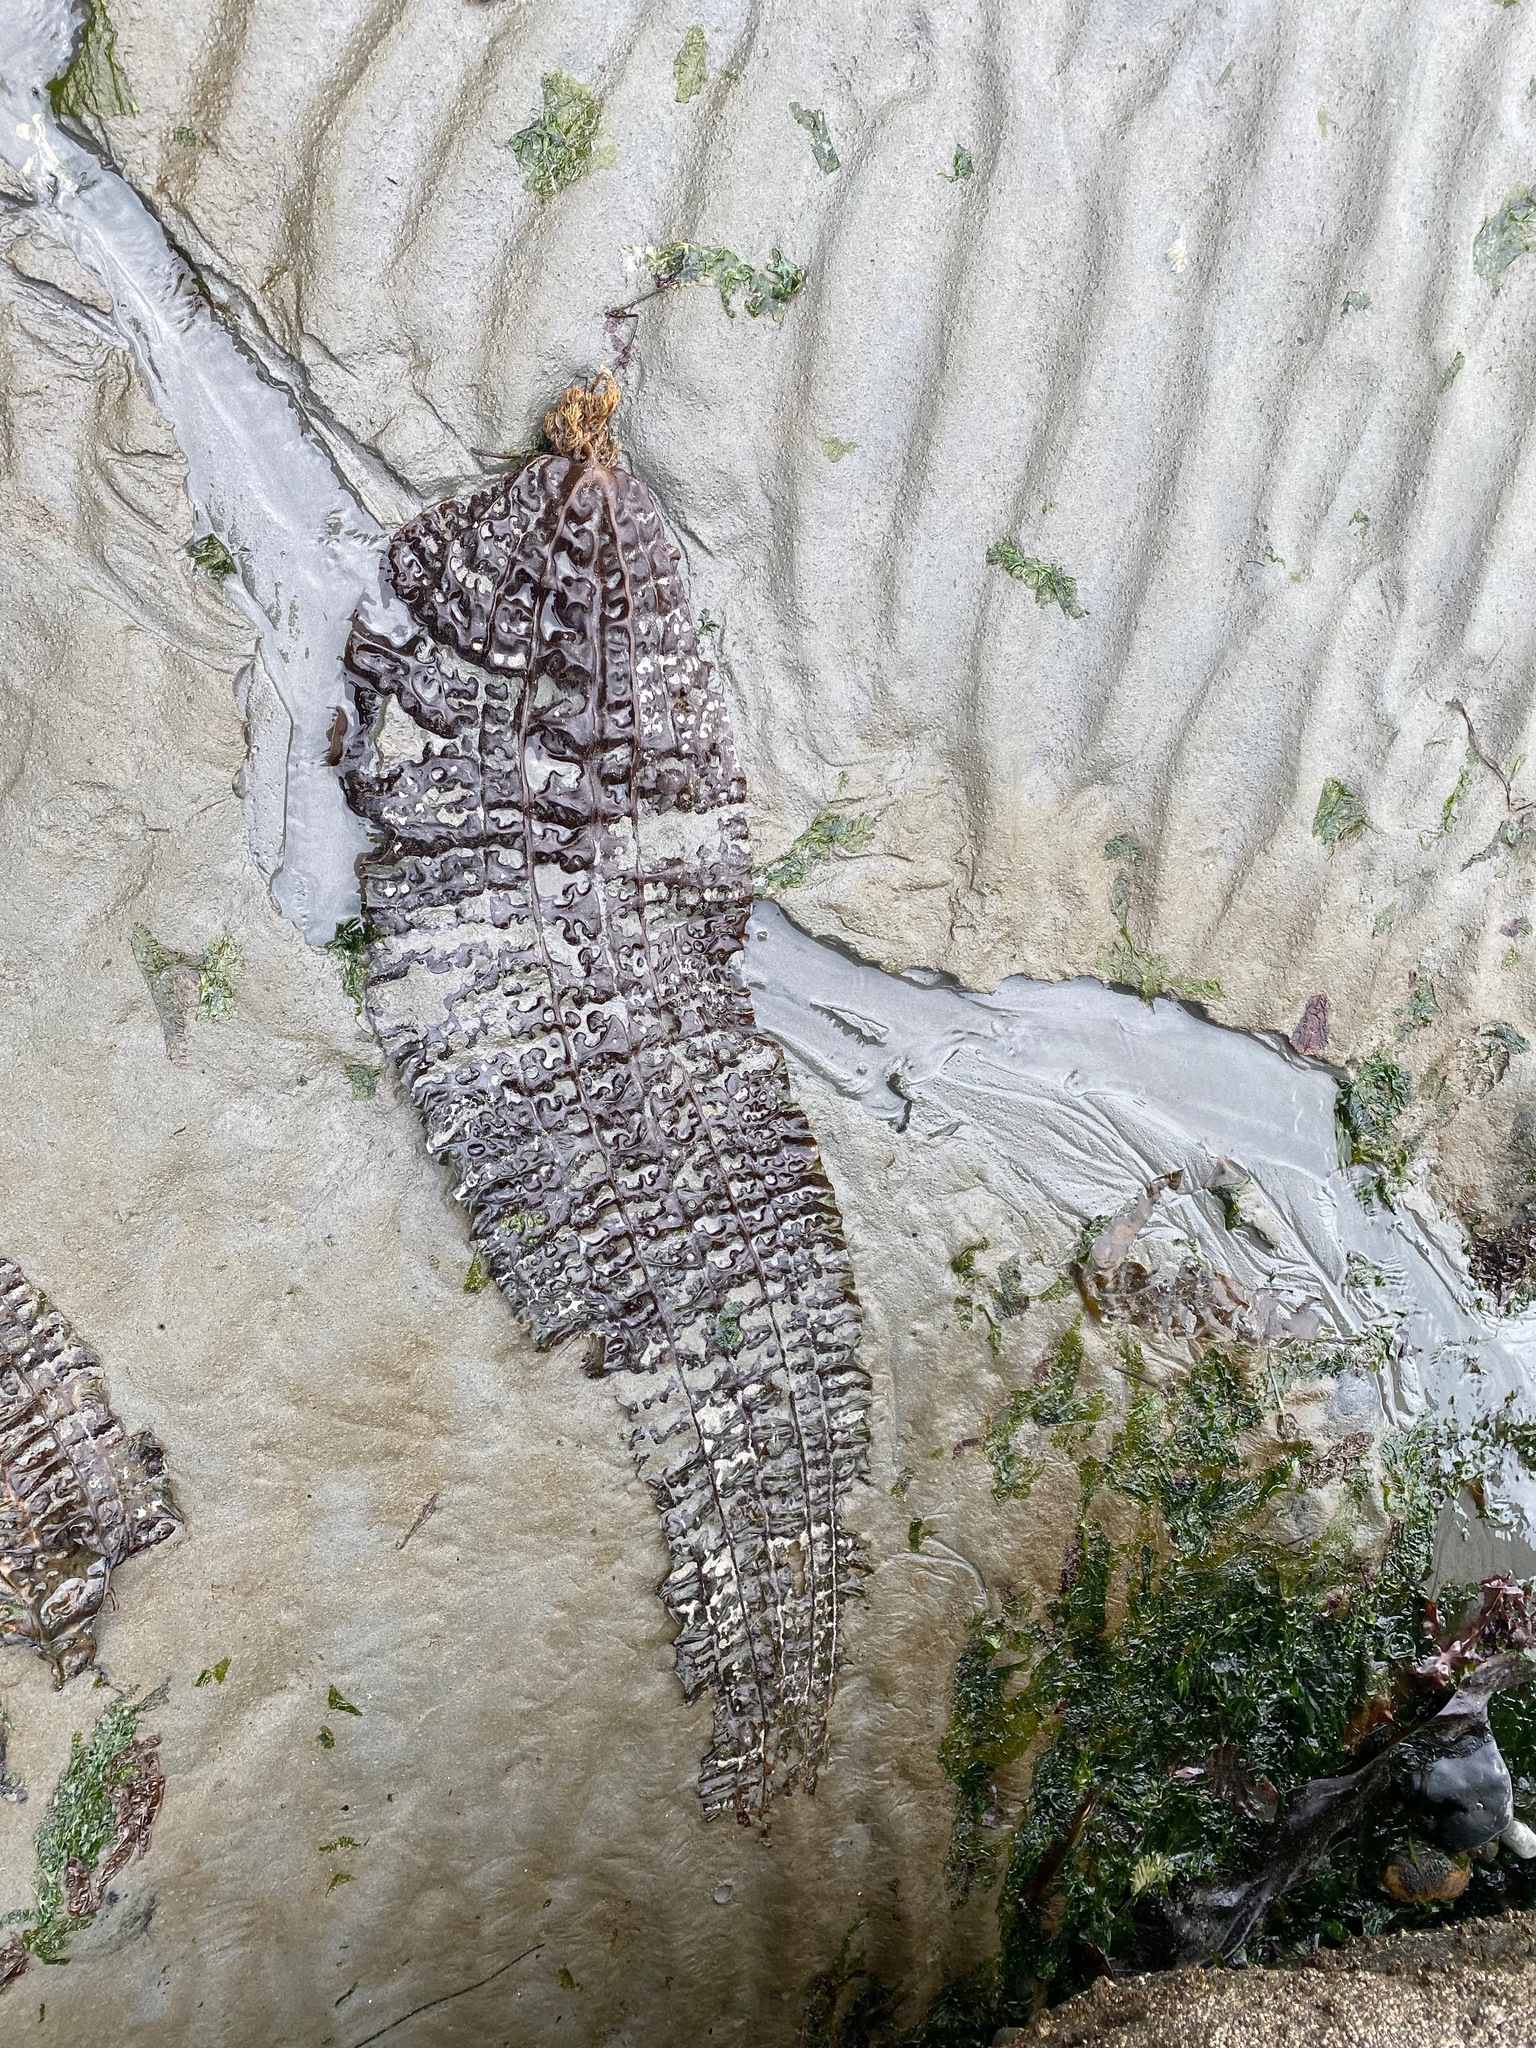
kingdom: Chromista
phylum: Ochrophyta
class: Phaeophyceae
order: Laminariales
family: Costariaceae
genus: Costaria
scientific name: Costaria costata
